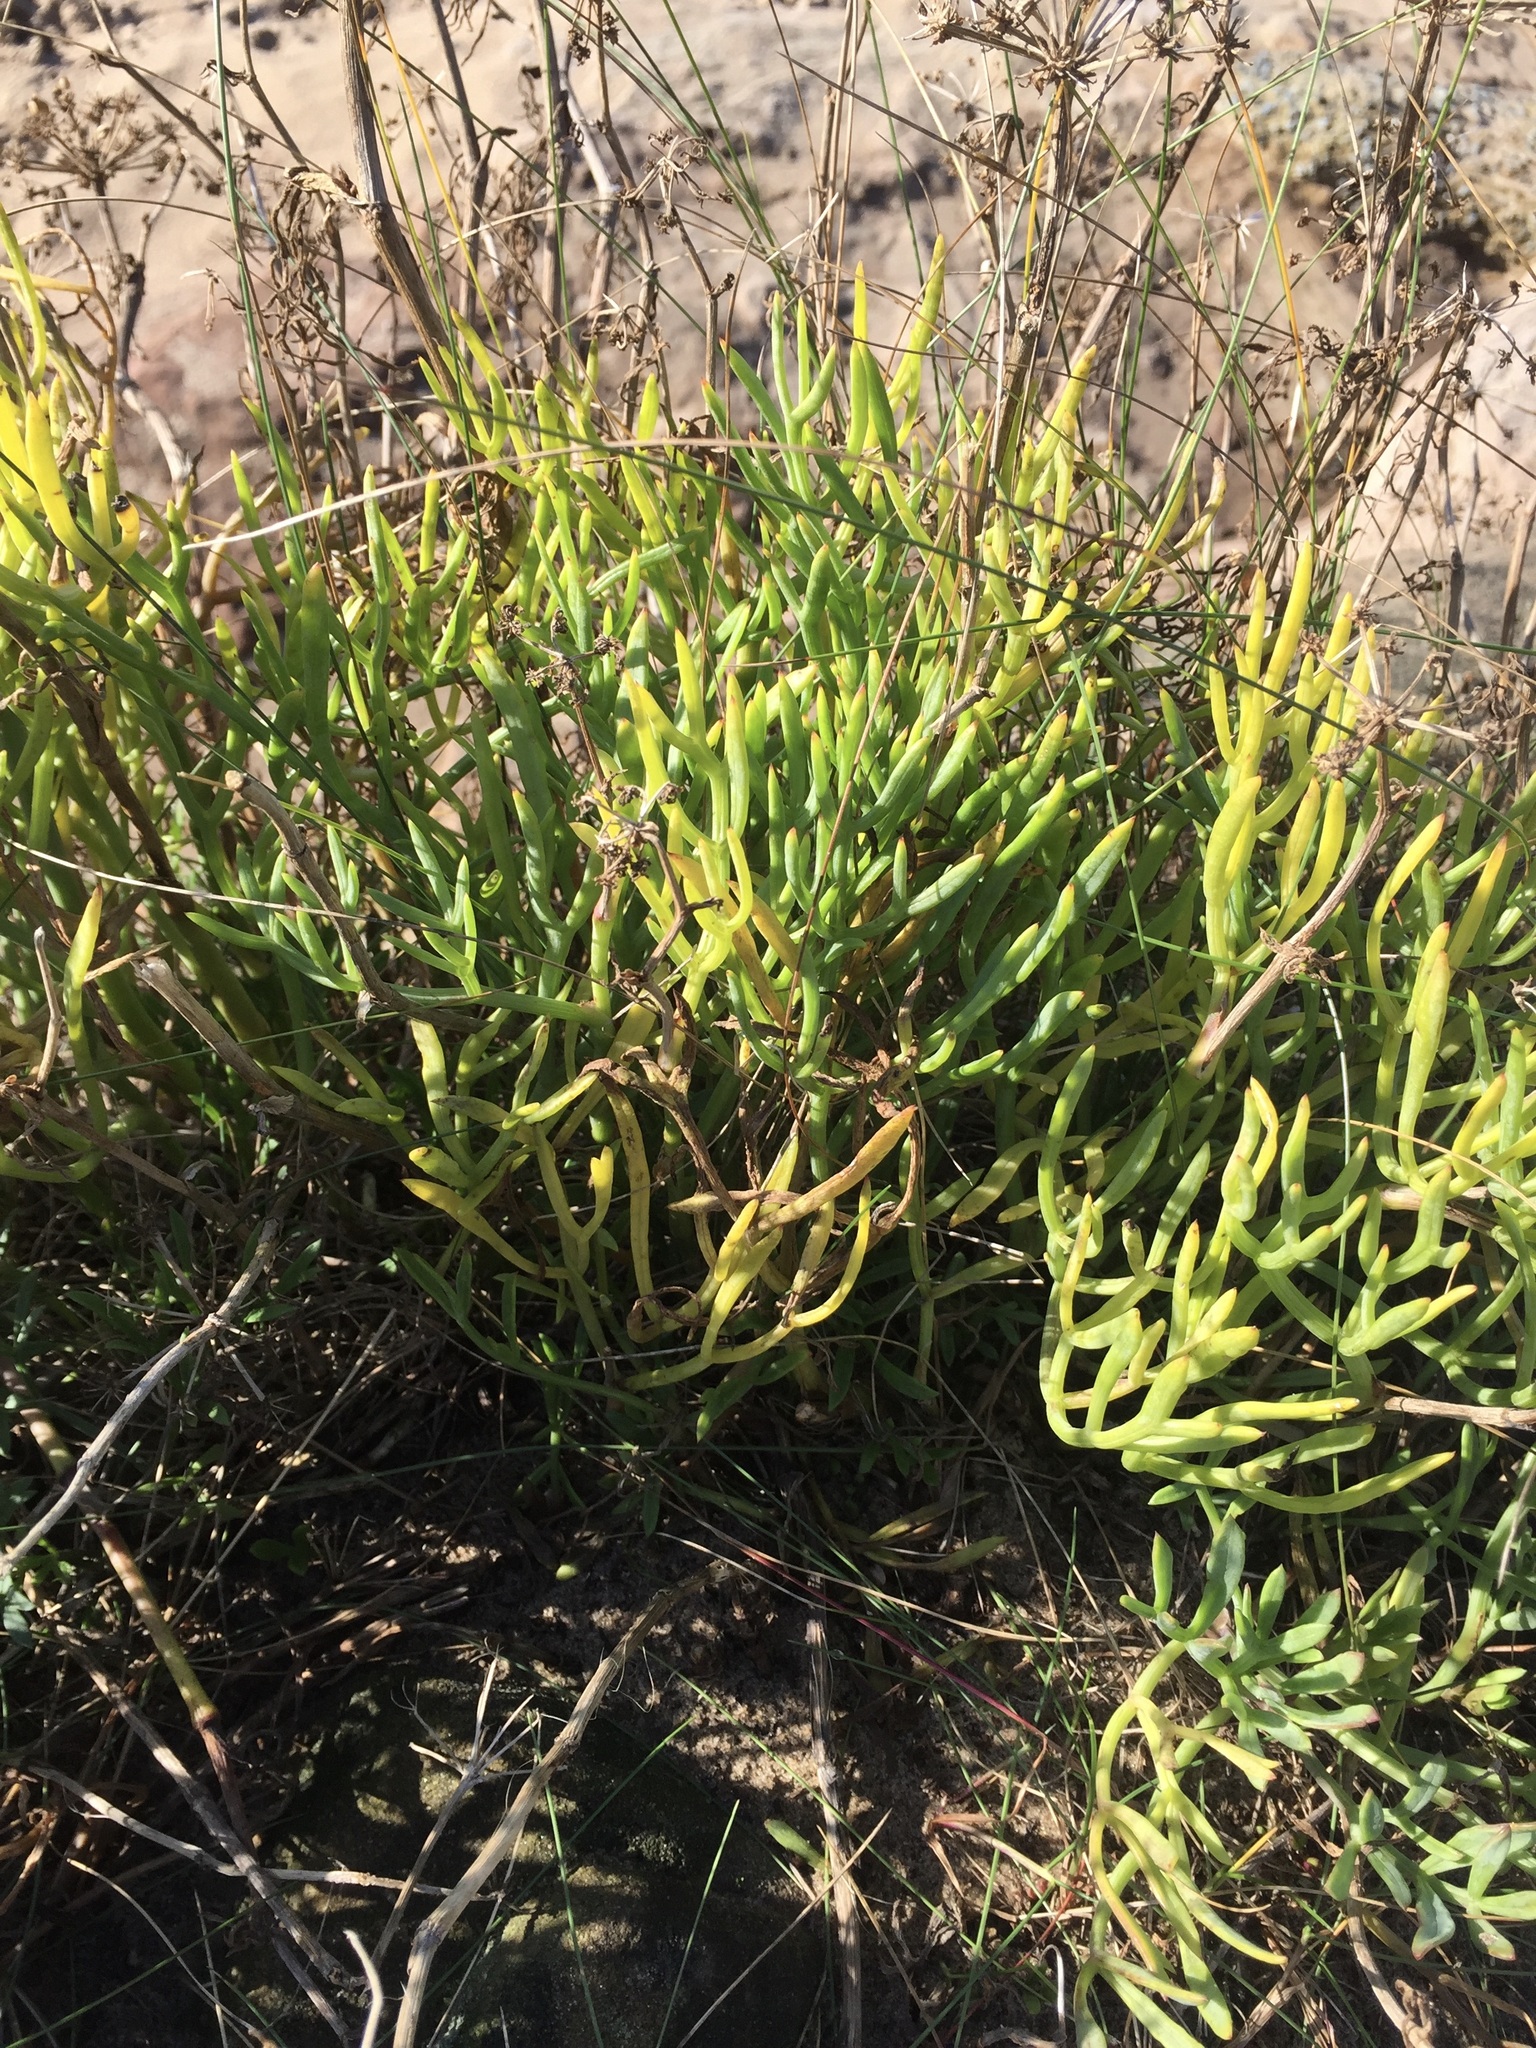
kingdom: Plantae
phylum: Tracheophyta
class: Magnoliopsida
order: Apiales
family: Apiaceae
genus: Crithmum
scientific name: Crithmum maritimum
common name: Rock samphire
